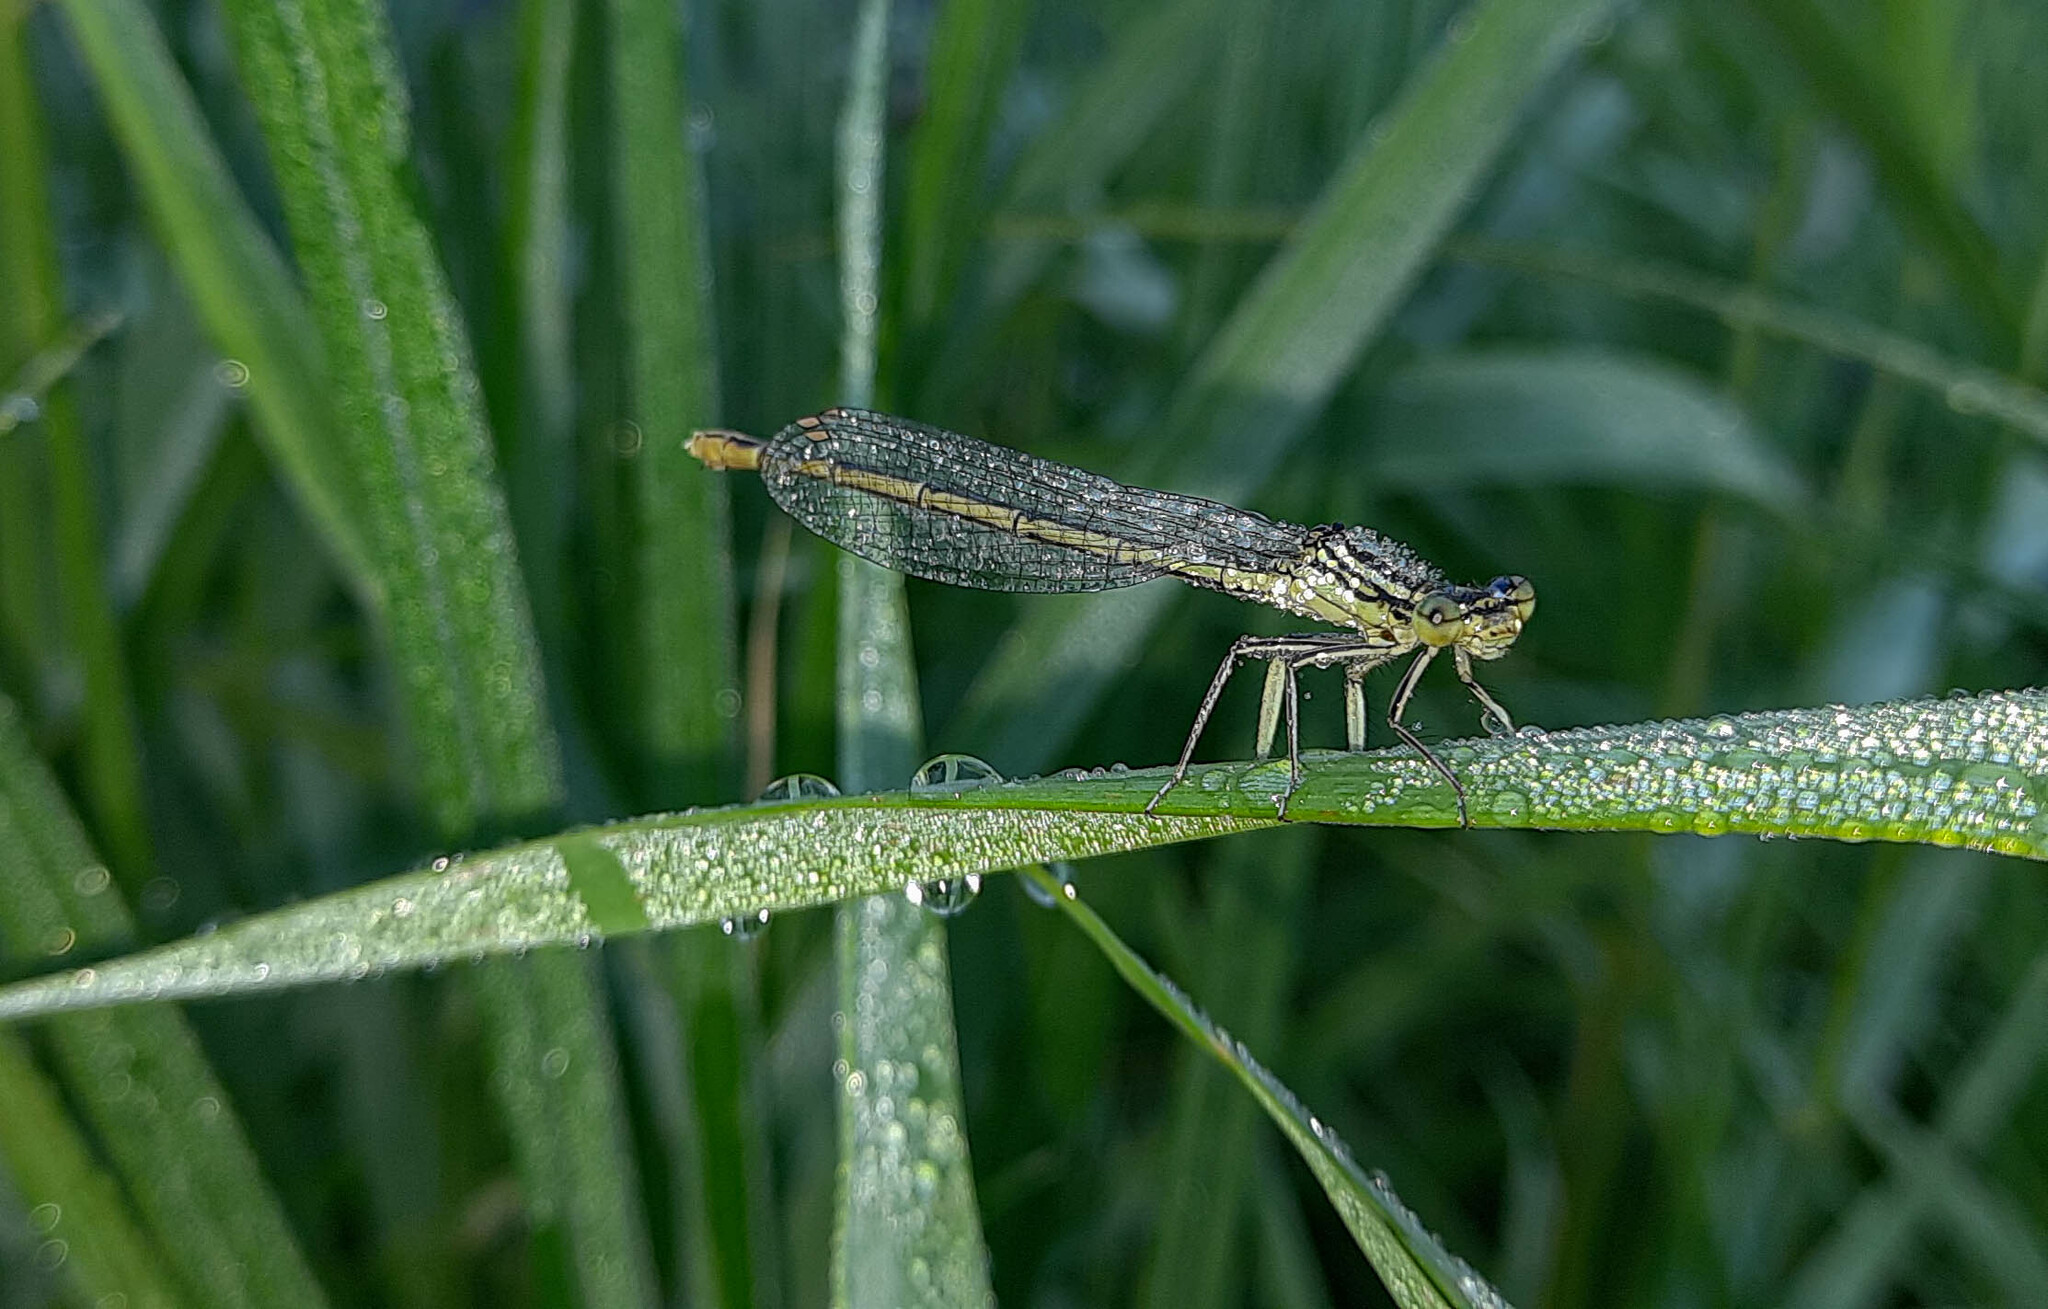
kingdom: Animalia
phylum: Arthropoda
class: Insecta
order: Odonata
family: Platycnemididae
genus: Platycnemis
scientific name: Platycnemis pennipes
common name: White-legged damselfly
